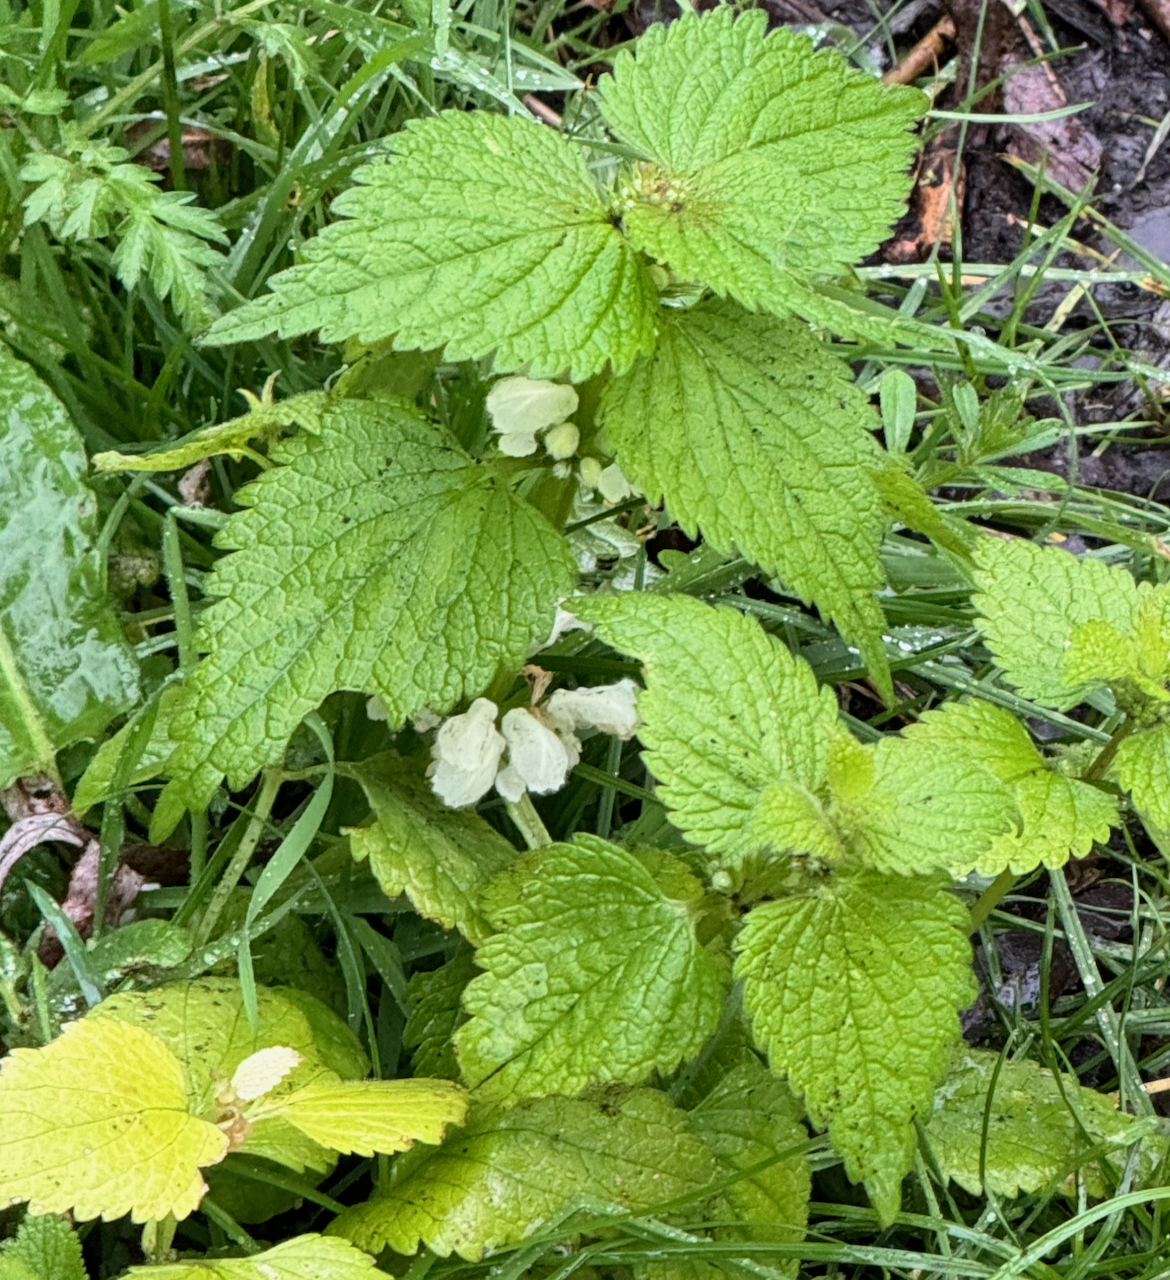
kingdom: Plantae
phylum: Tracheophyta
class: Magnoliopsida
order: Lamiales
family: Lamiaceae
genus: Lamium
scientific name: Lamium album
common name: White dead-nettle
